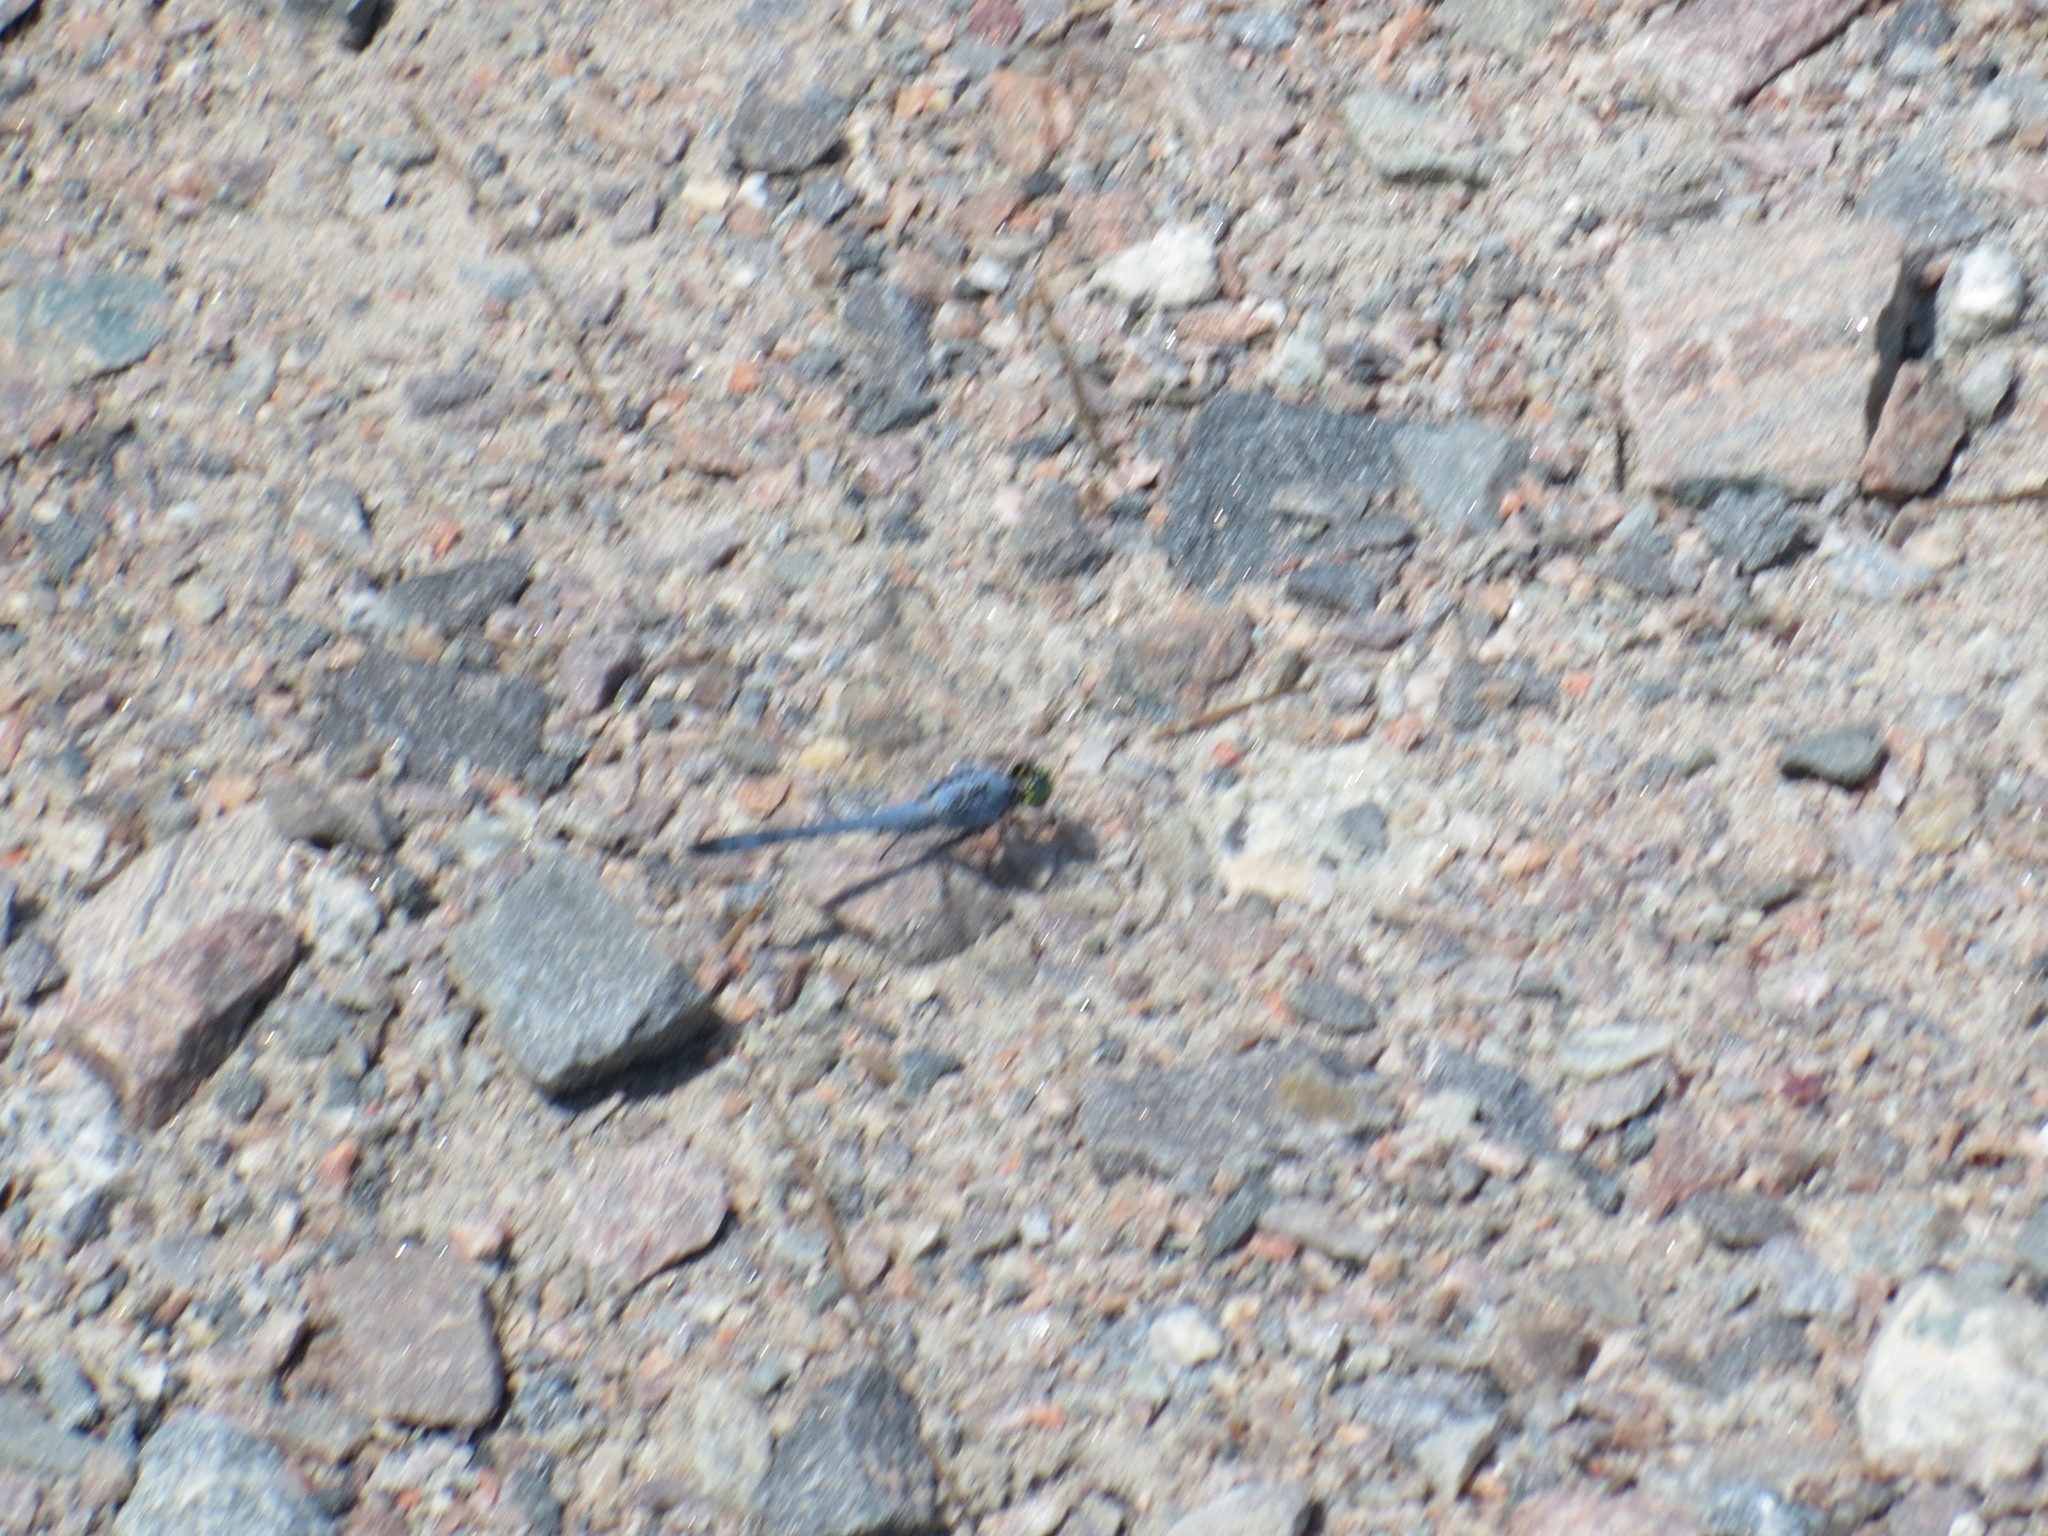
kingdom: Animalia
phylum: Arthropoda
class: Insecta
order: Odonata
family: Libellulidae
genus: Erythemis
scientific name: Erythemis simplicicollis
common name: Eastern pondhawk
